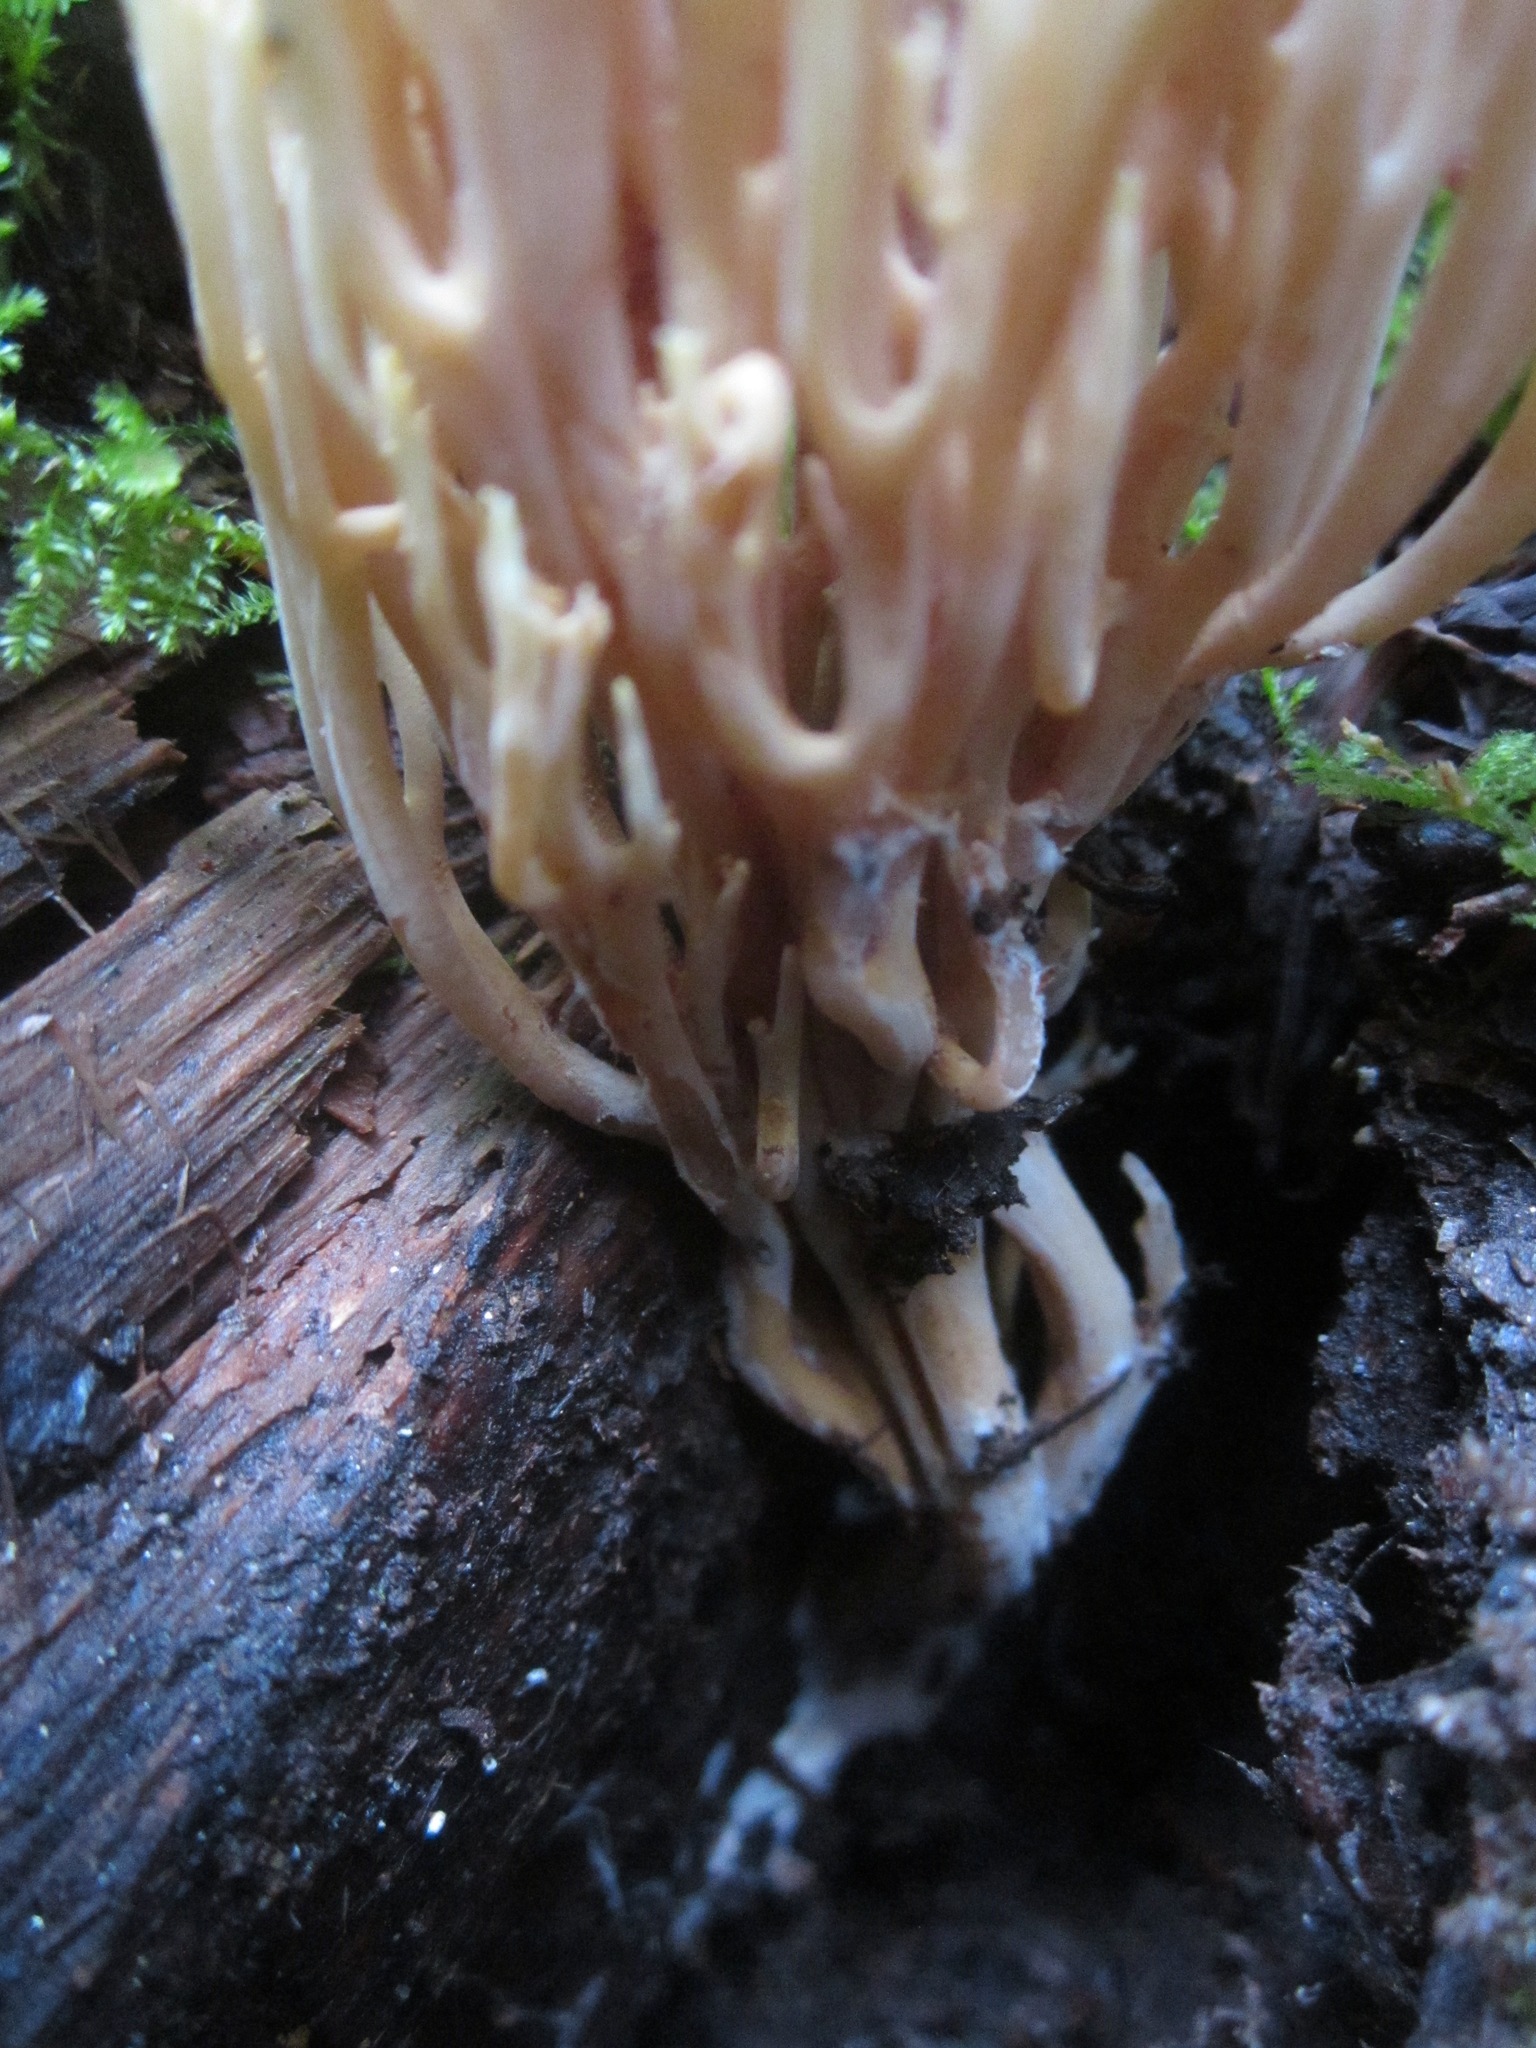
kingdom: Fungi
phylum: Basidiomycota
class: Agaricomycetes
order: Gomphales
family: Gomphaceae
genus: Ramaria
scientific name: Ramaria stricta
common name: Upright coral
